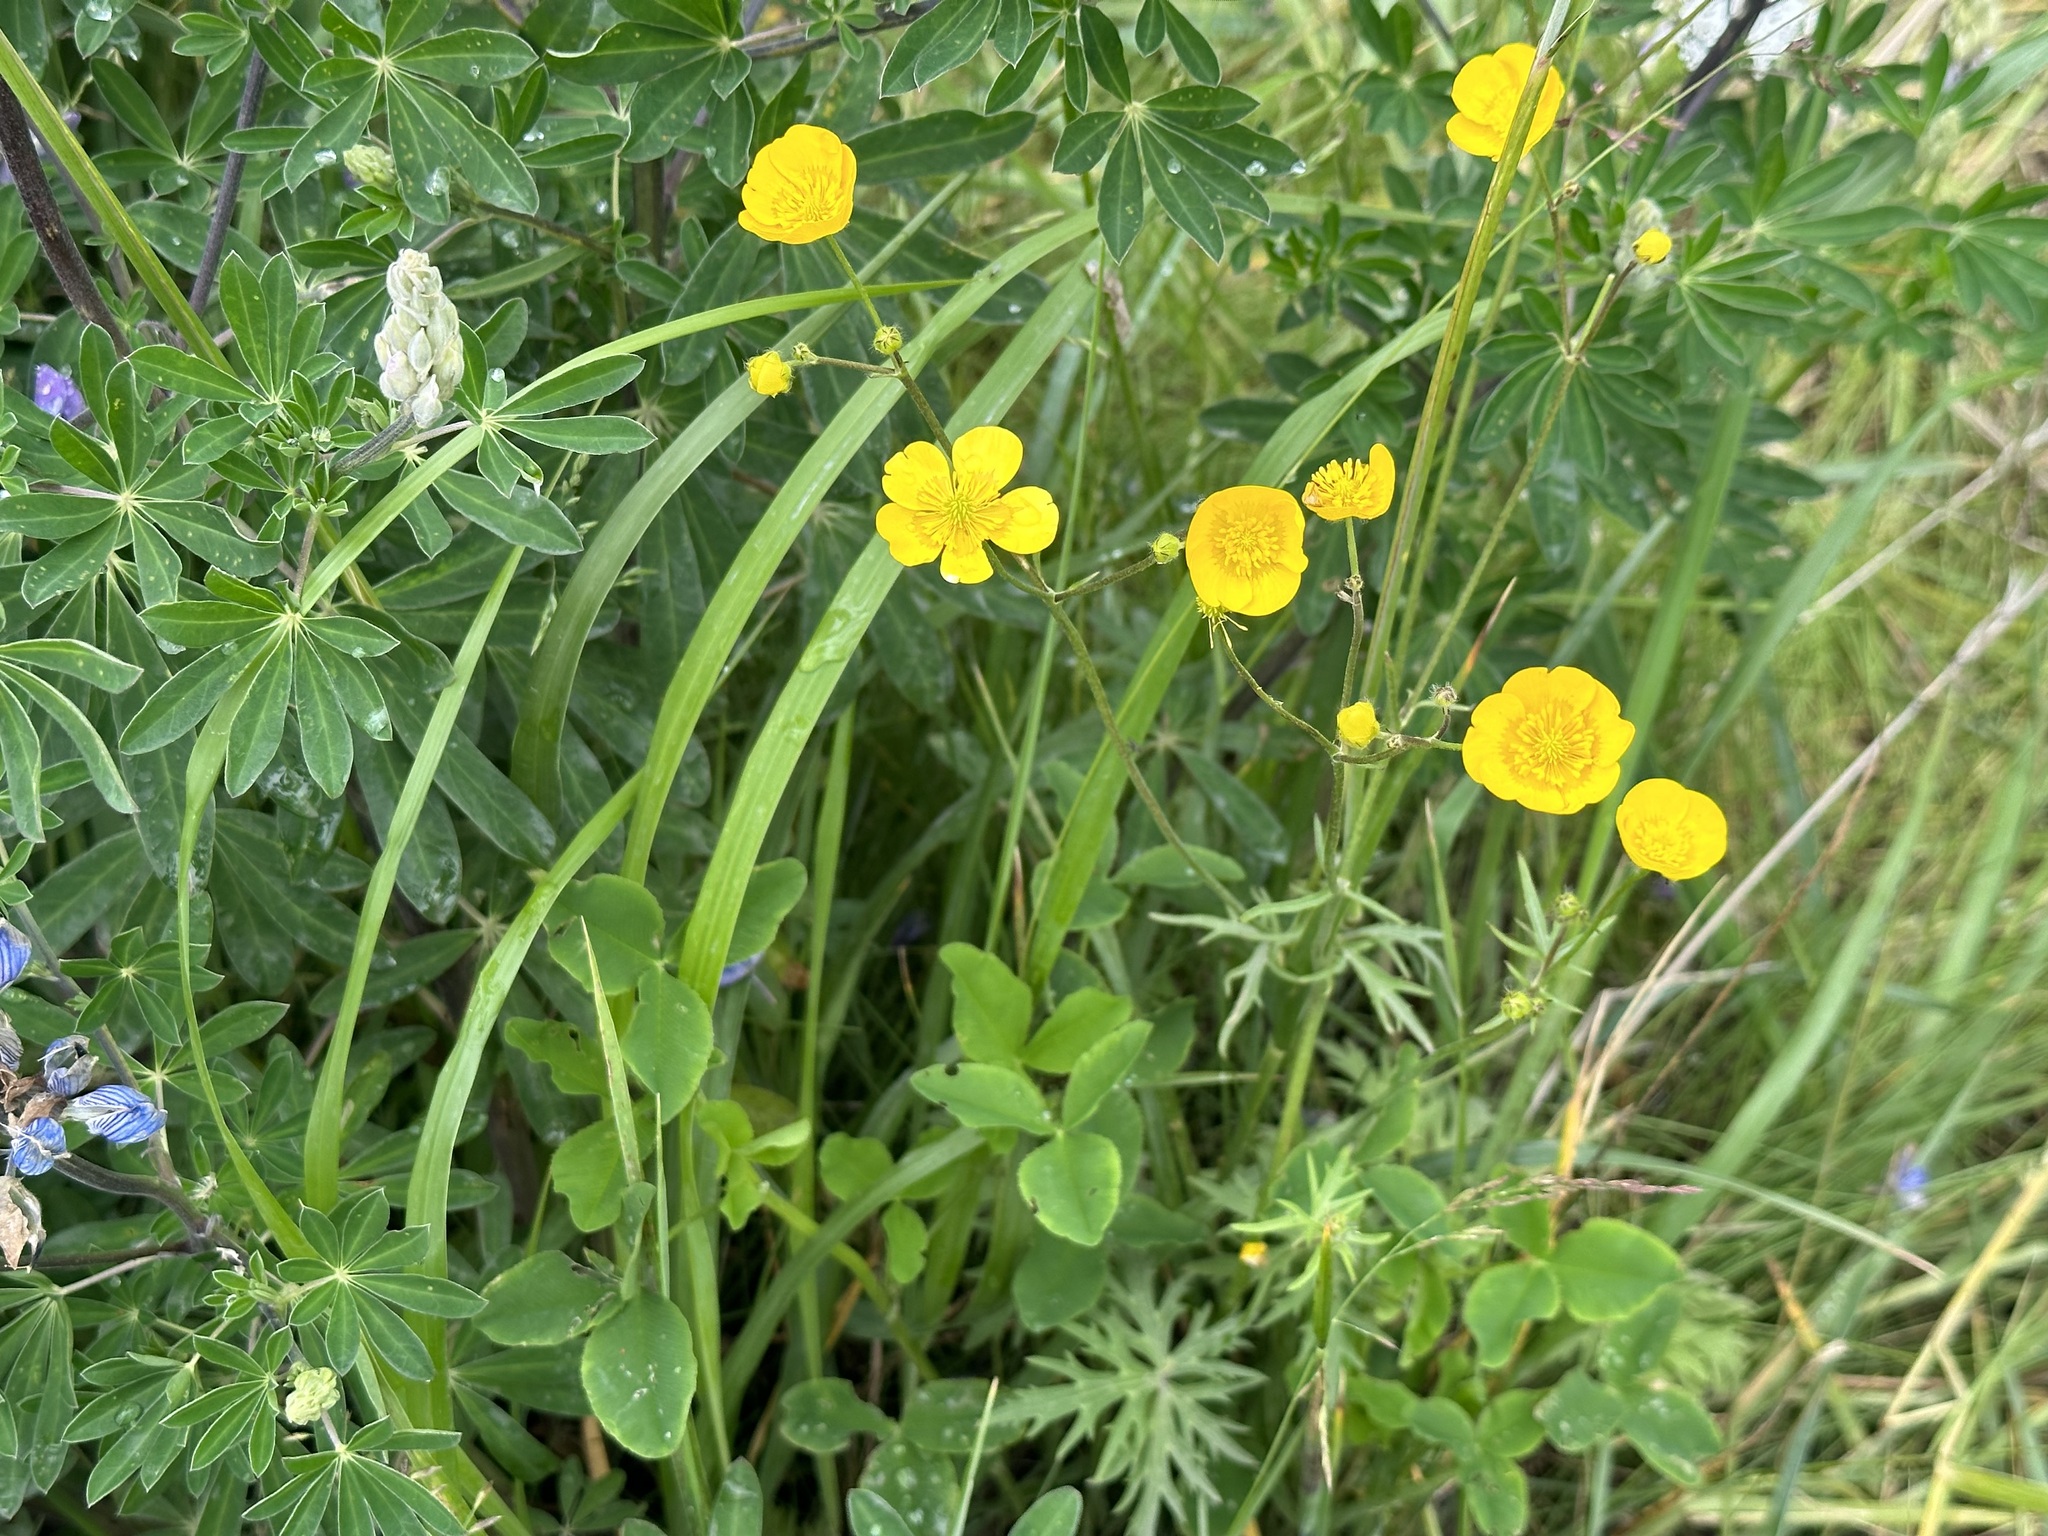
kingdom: Plantae
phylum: Tracheophyta
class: Magnoliopsida
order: Ranunculales
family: Ranunculaceae
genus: Ranunculus
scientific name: Ranunculus acris
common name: Meadow buttercup
